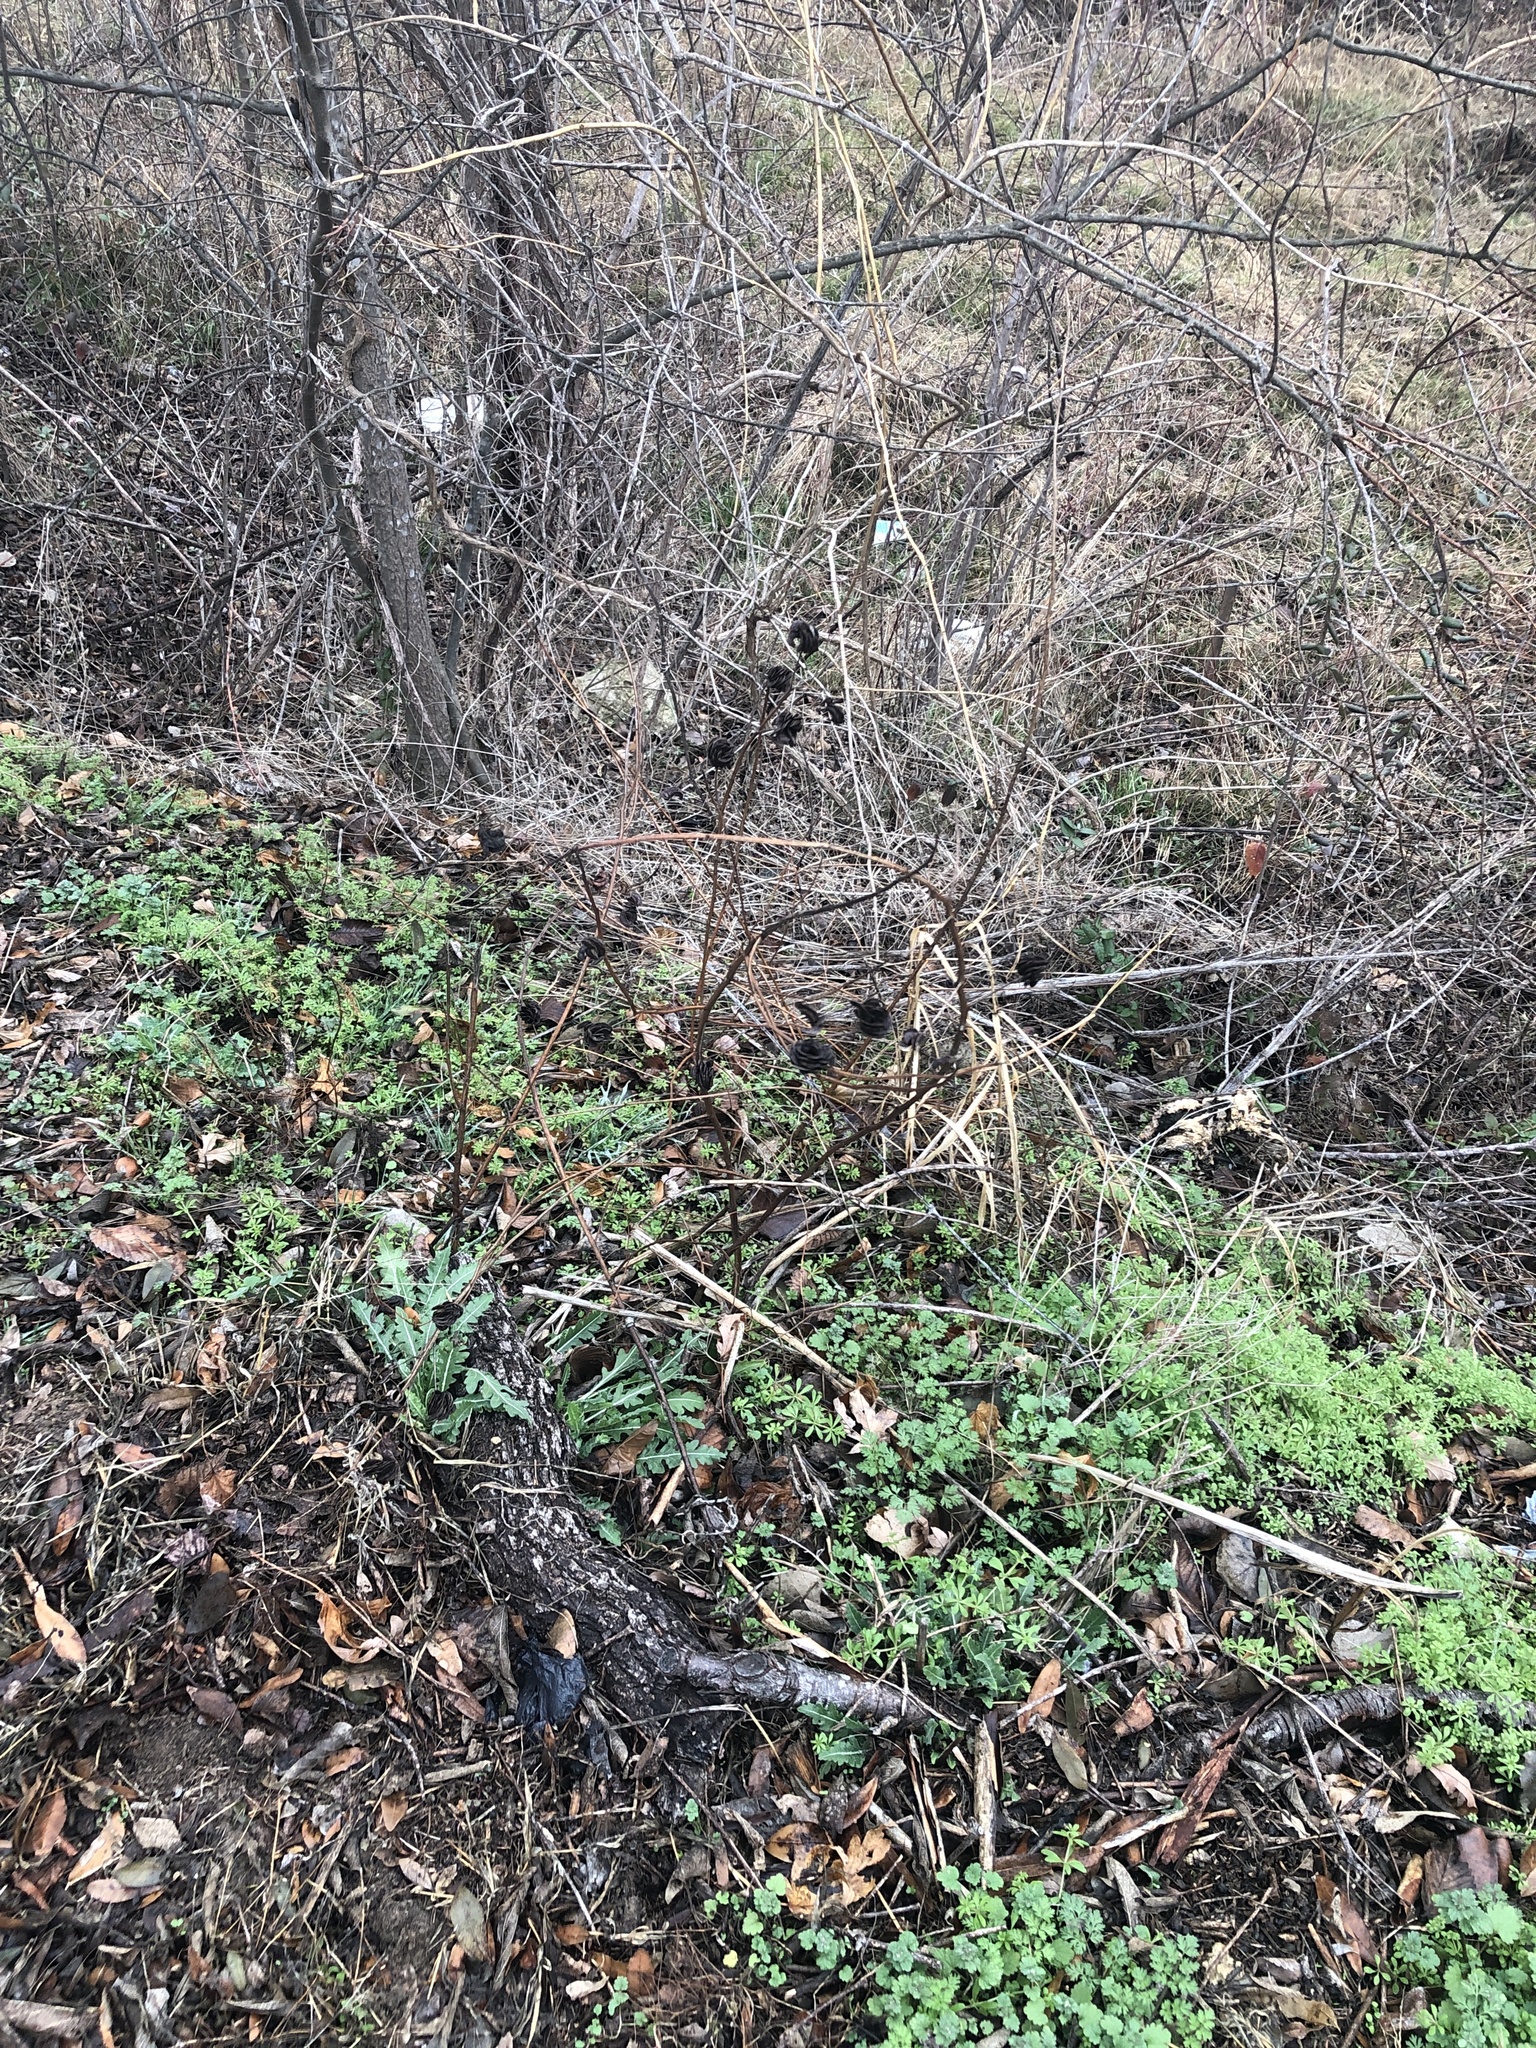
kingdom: Plantae
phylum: Tracheophyta
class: Magnoliopsida
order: Fabales
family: Fabaceae
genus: Desmanthus
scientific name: Desmanthus illinoensis
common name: Illinois bundle-flower
